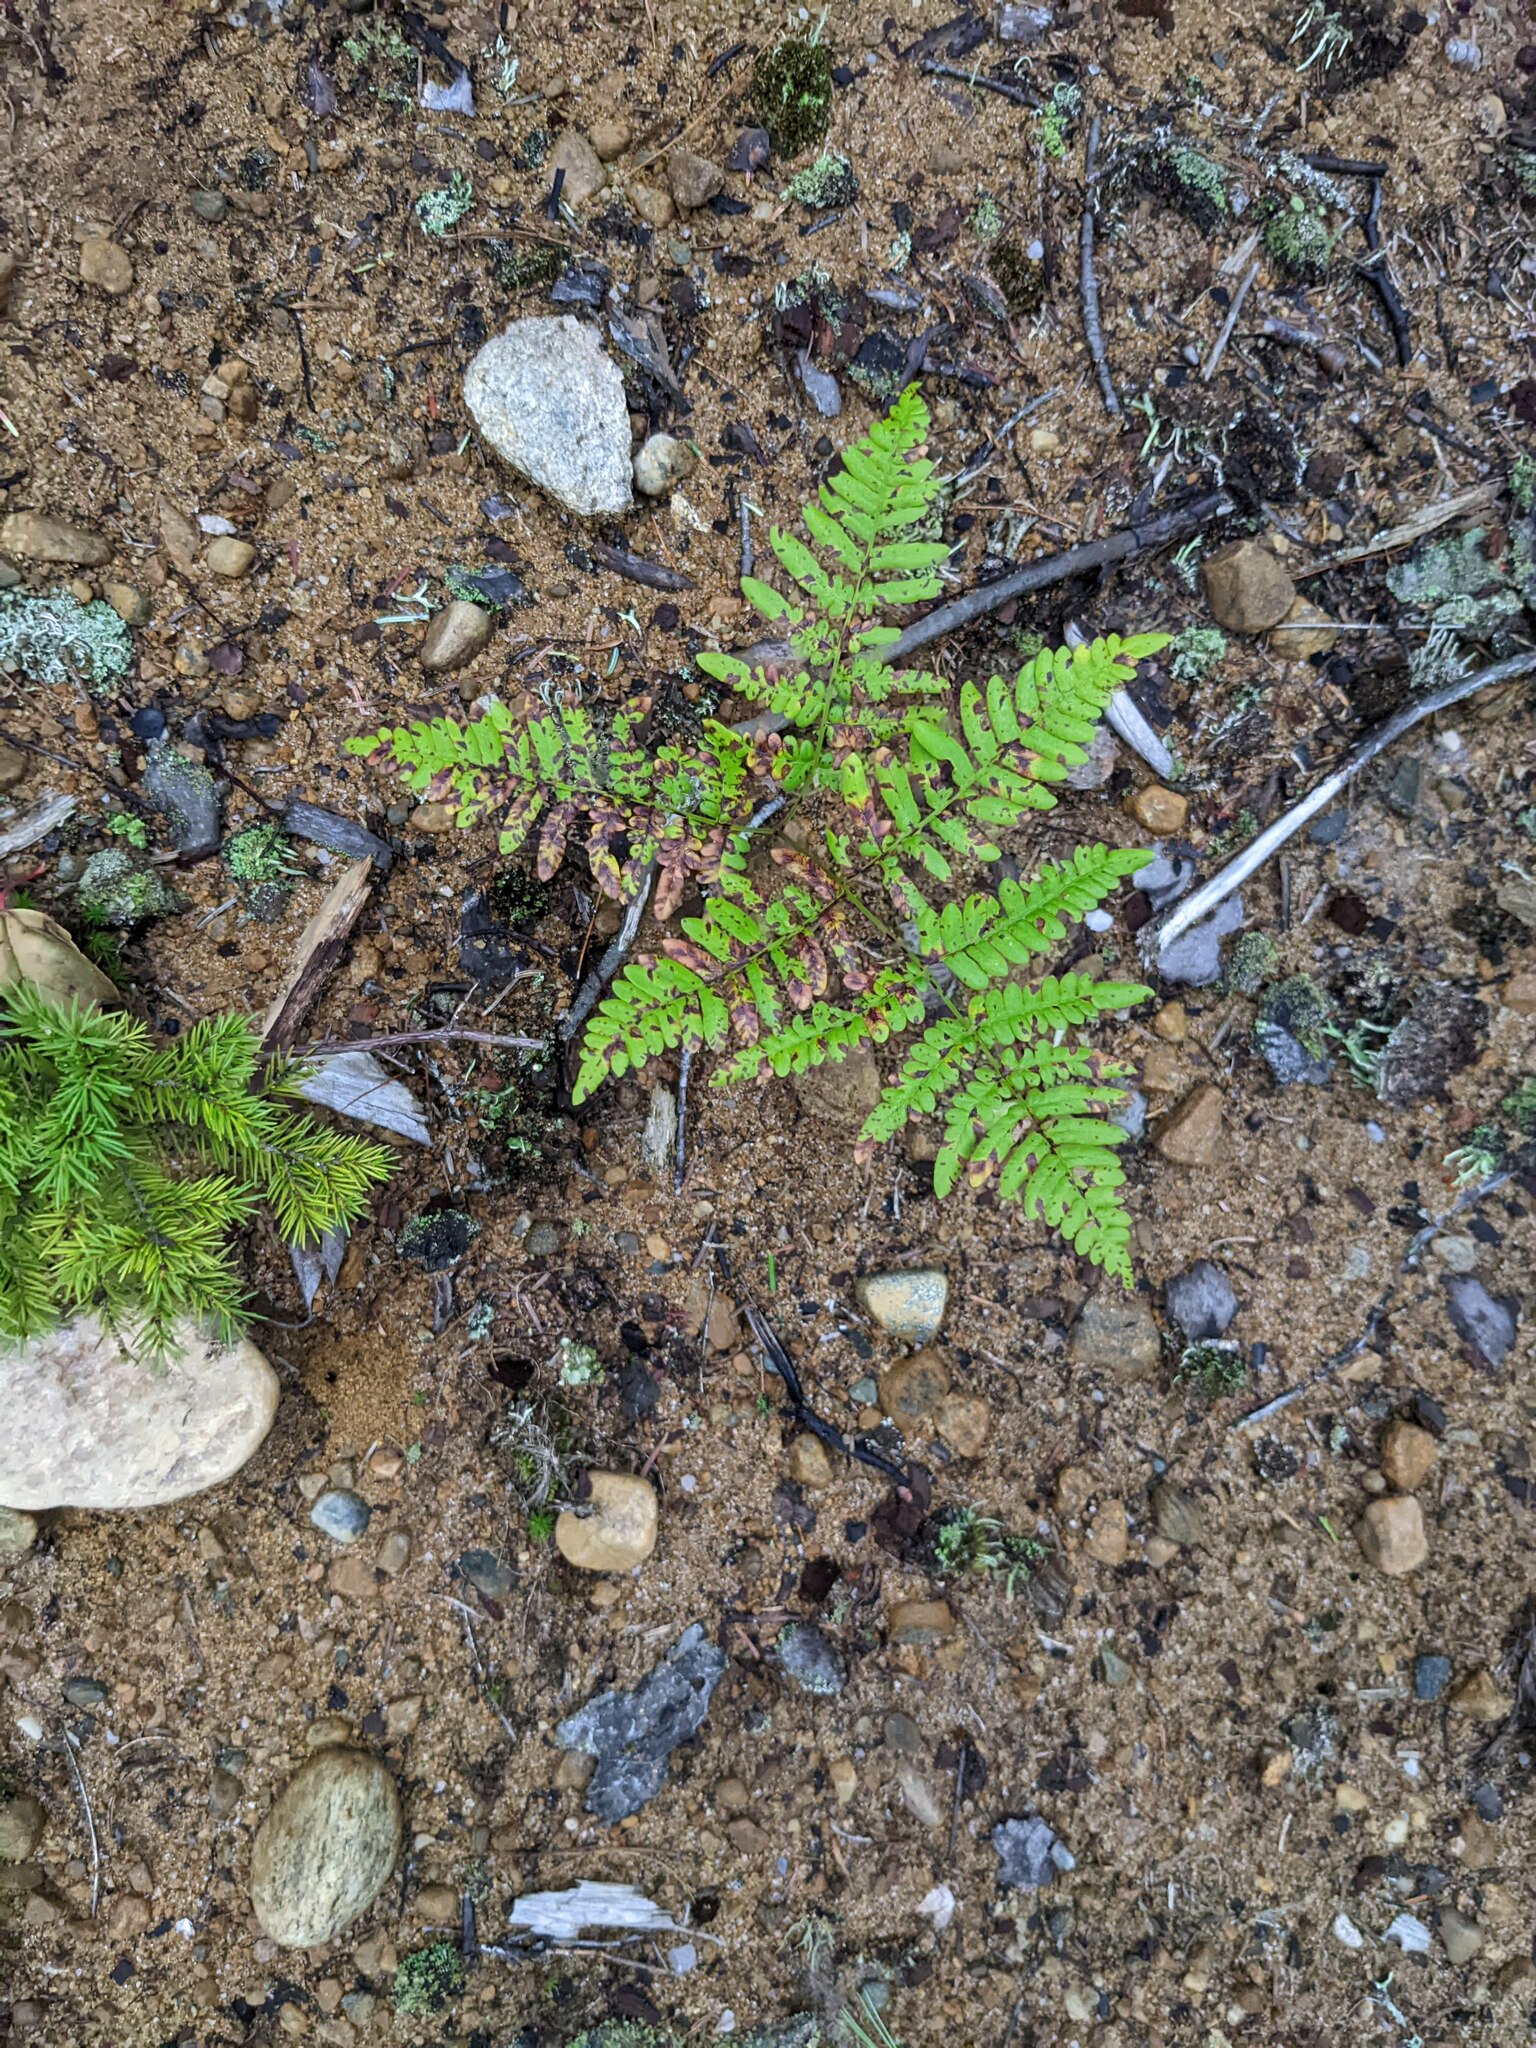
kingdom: Plantae
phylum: Tracheophyta
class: Polypodiopsida
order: Polypodiales
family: Dennstaedtiaceae
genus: Pteridium
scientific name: Pteridium aquilinum
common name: Bracken
